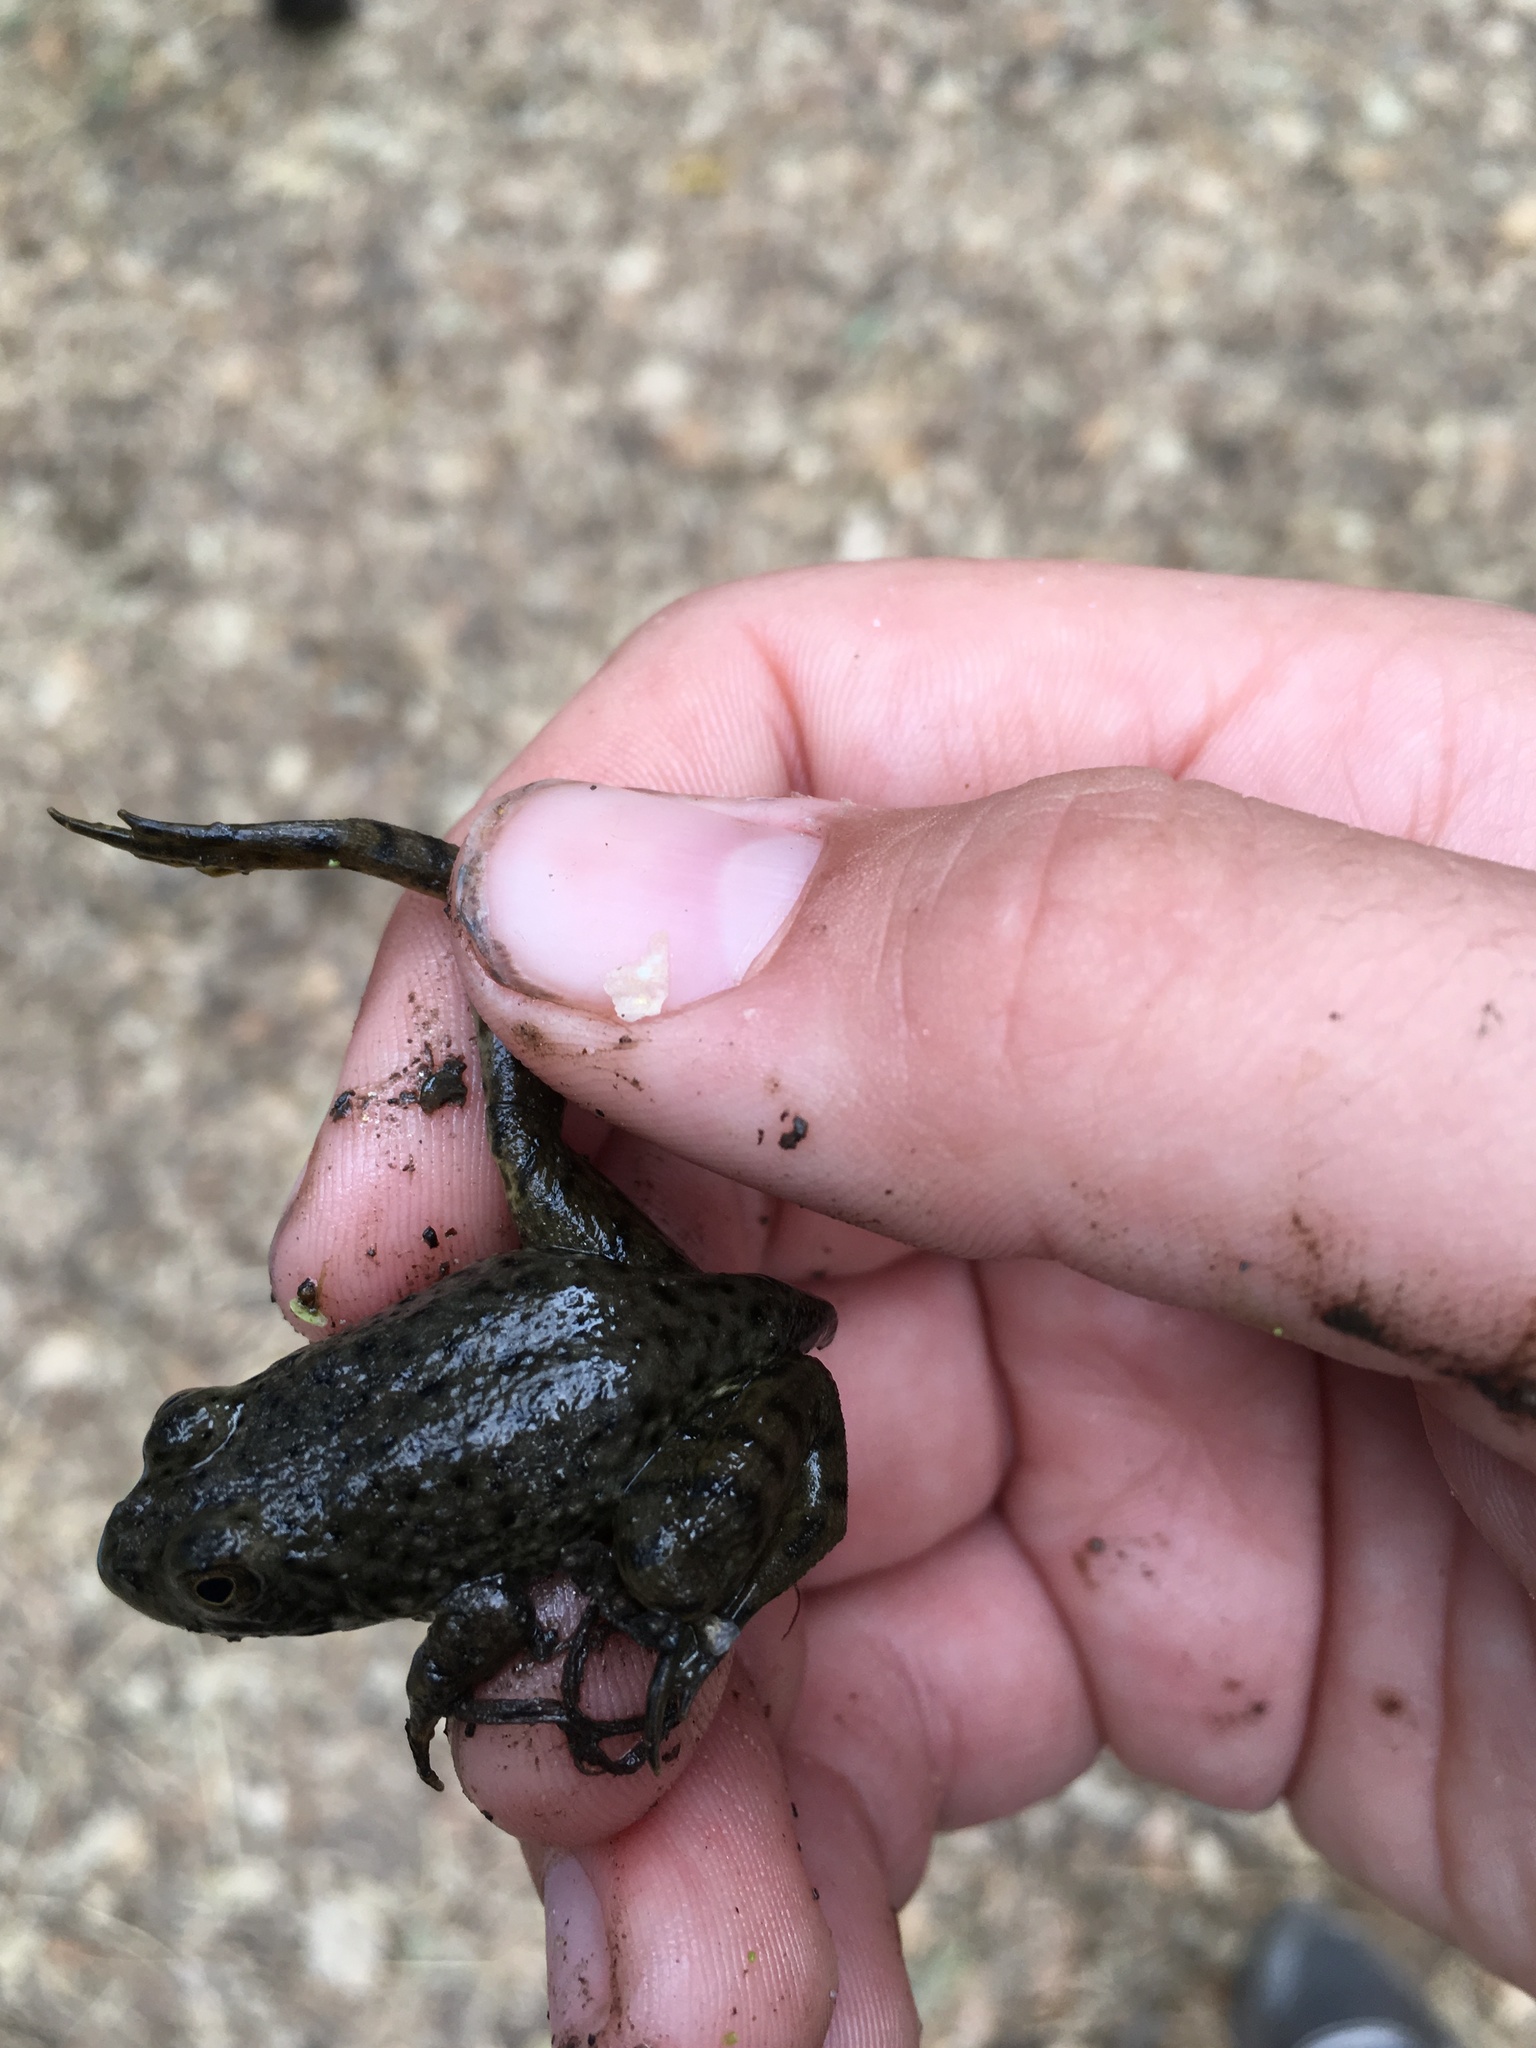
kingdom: Animalia
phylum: Chordata
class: Amphibia
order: Anura
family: Ranidae
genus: Lithobates
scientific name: Lithobates catesbeianus
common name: American bullfrog
